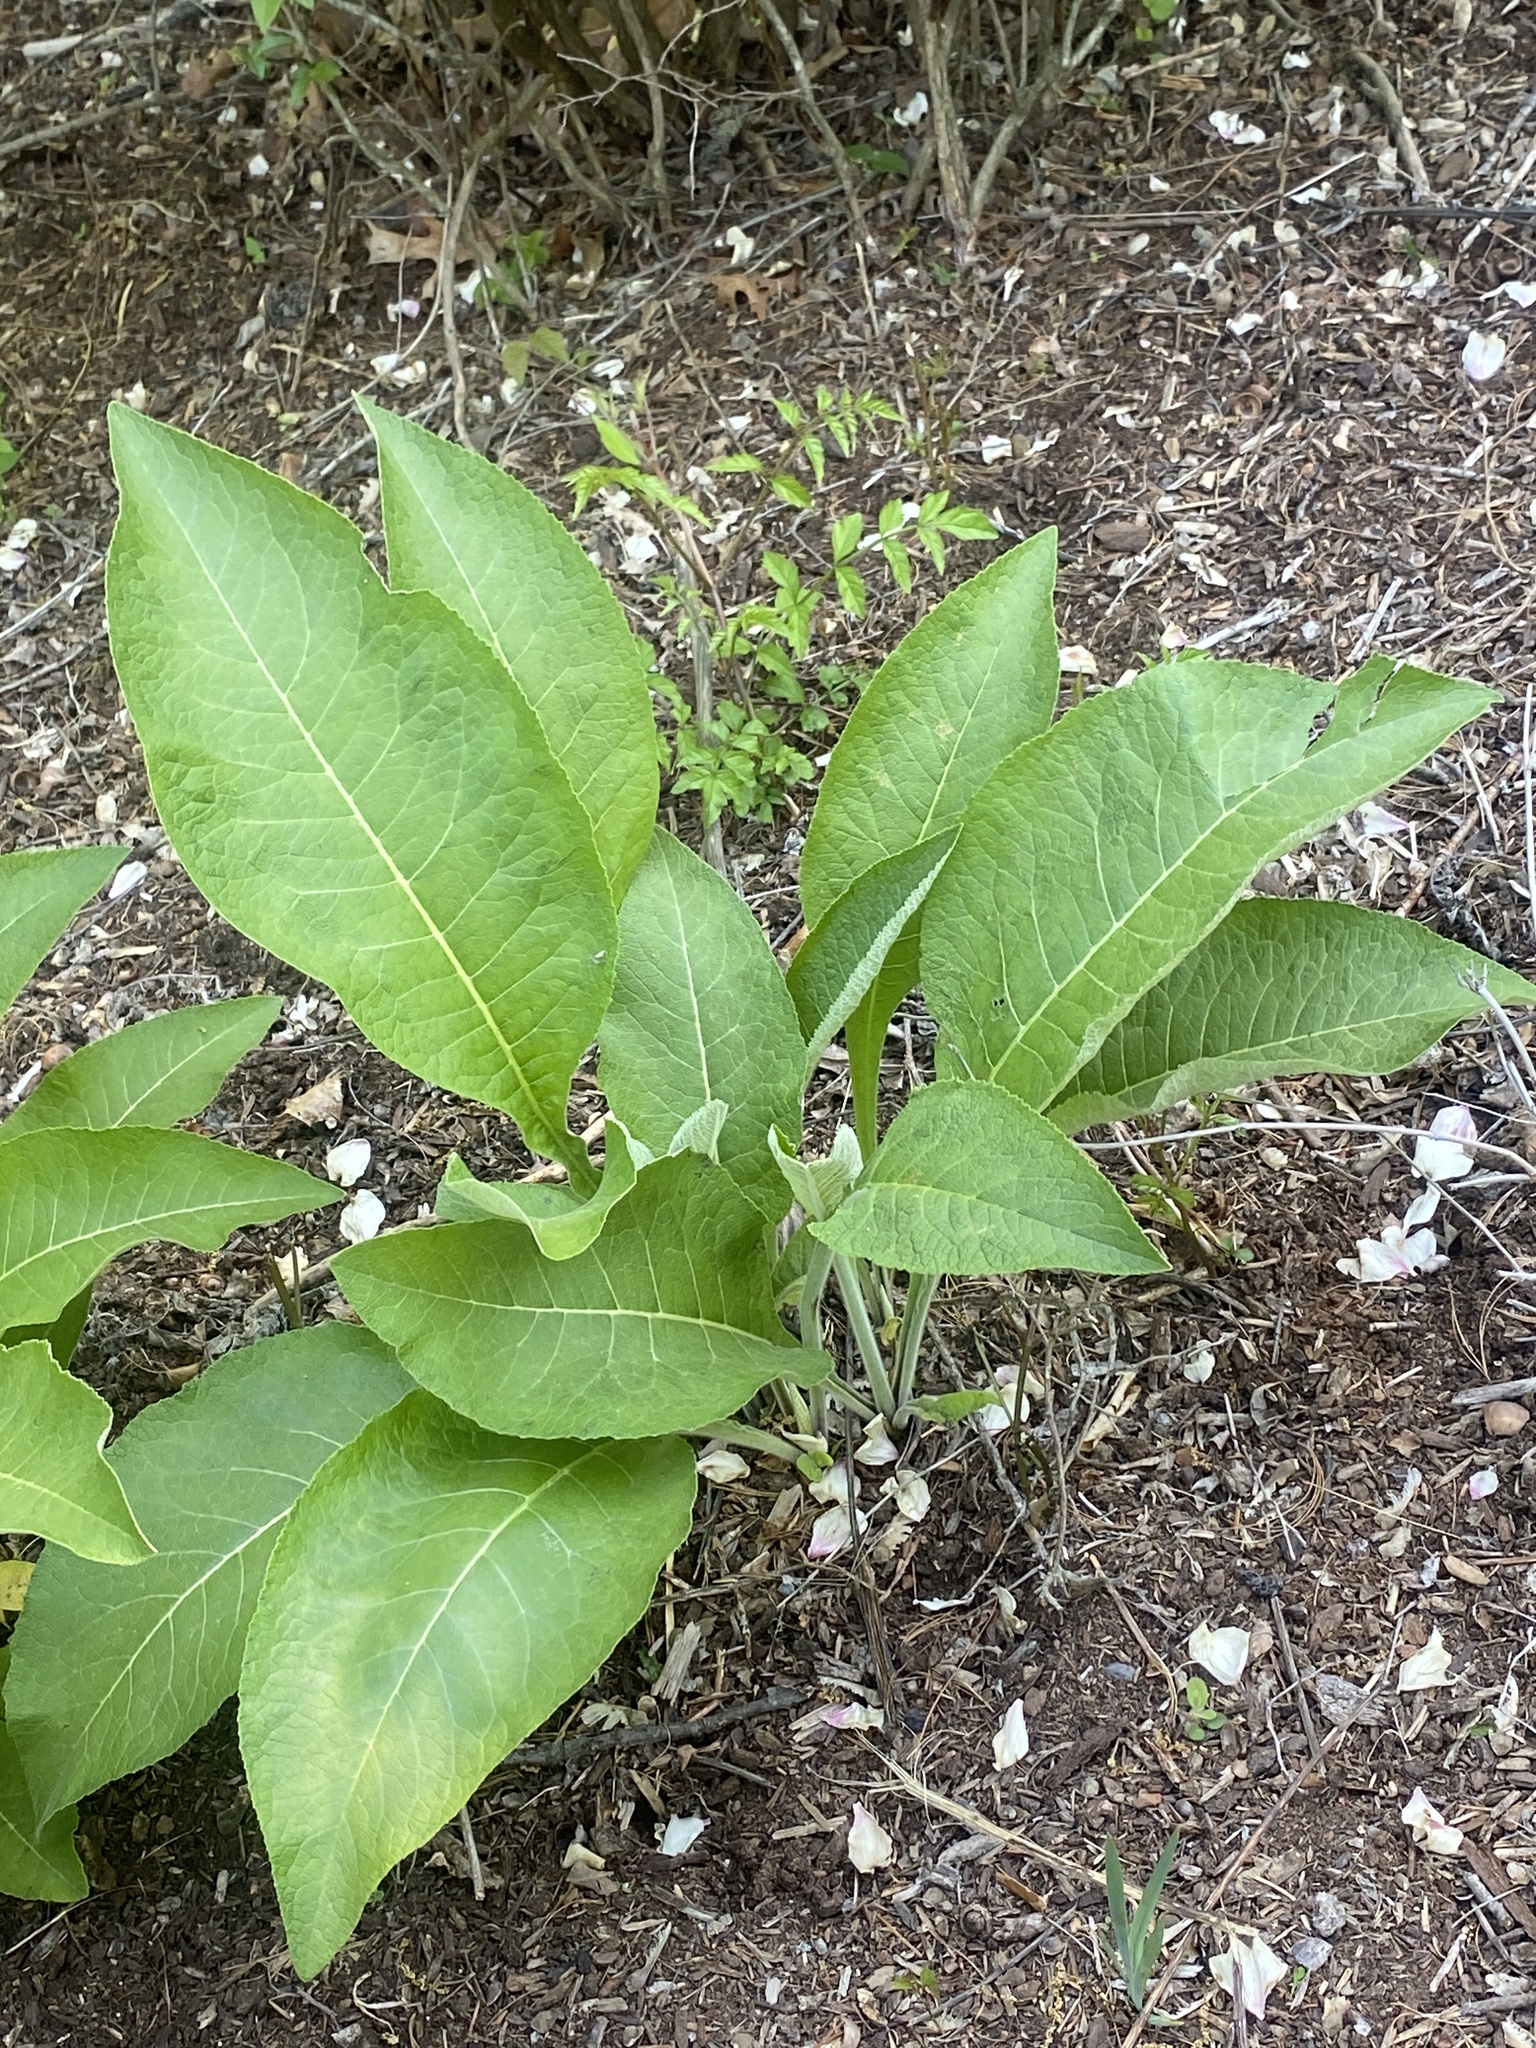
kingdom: Plantae
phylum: Tracheophyta
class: Magnoliopsida
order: Asterales
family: Asteraceae
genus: Inula
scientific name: Inula helenium
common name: Elecampane
